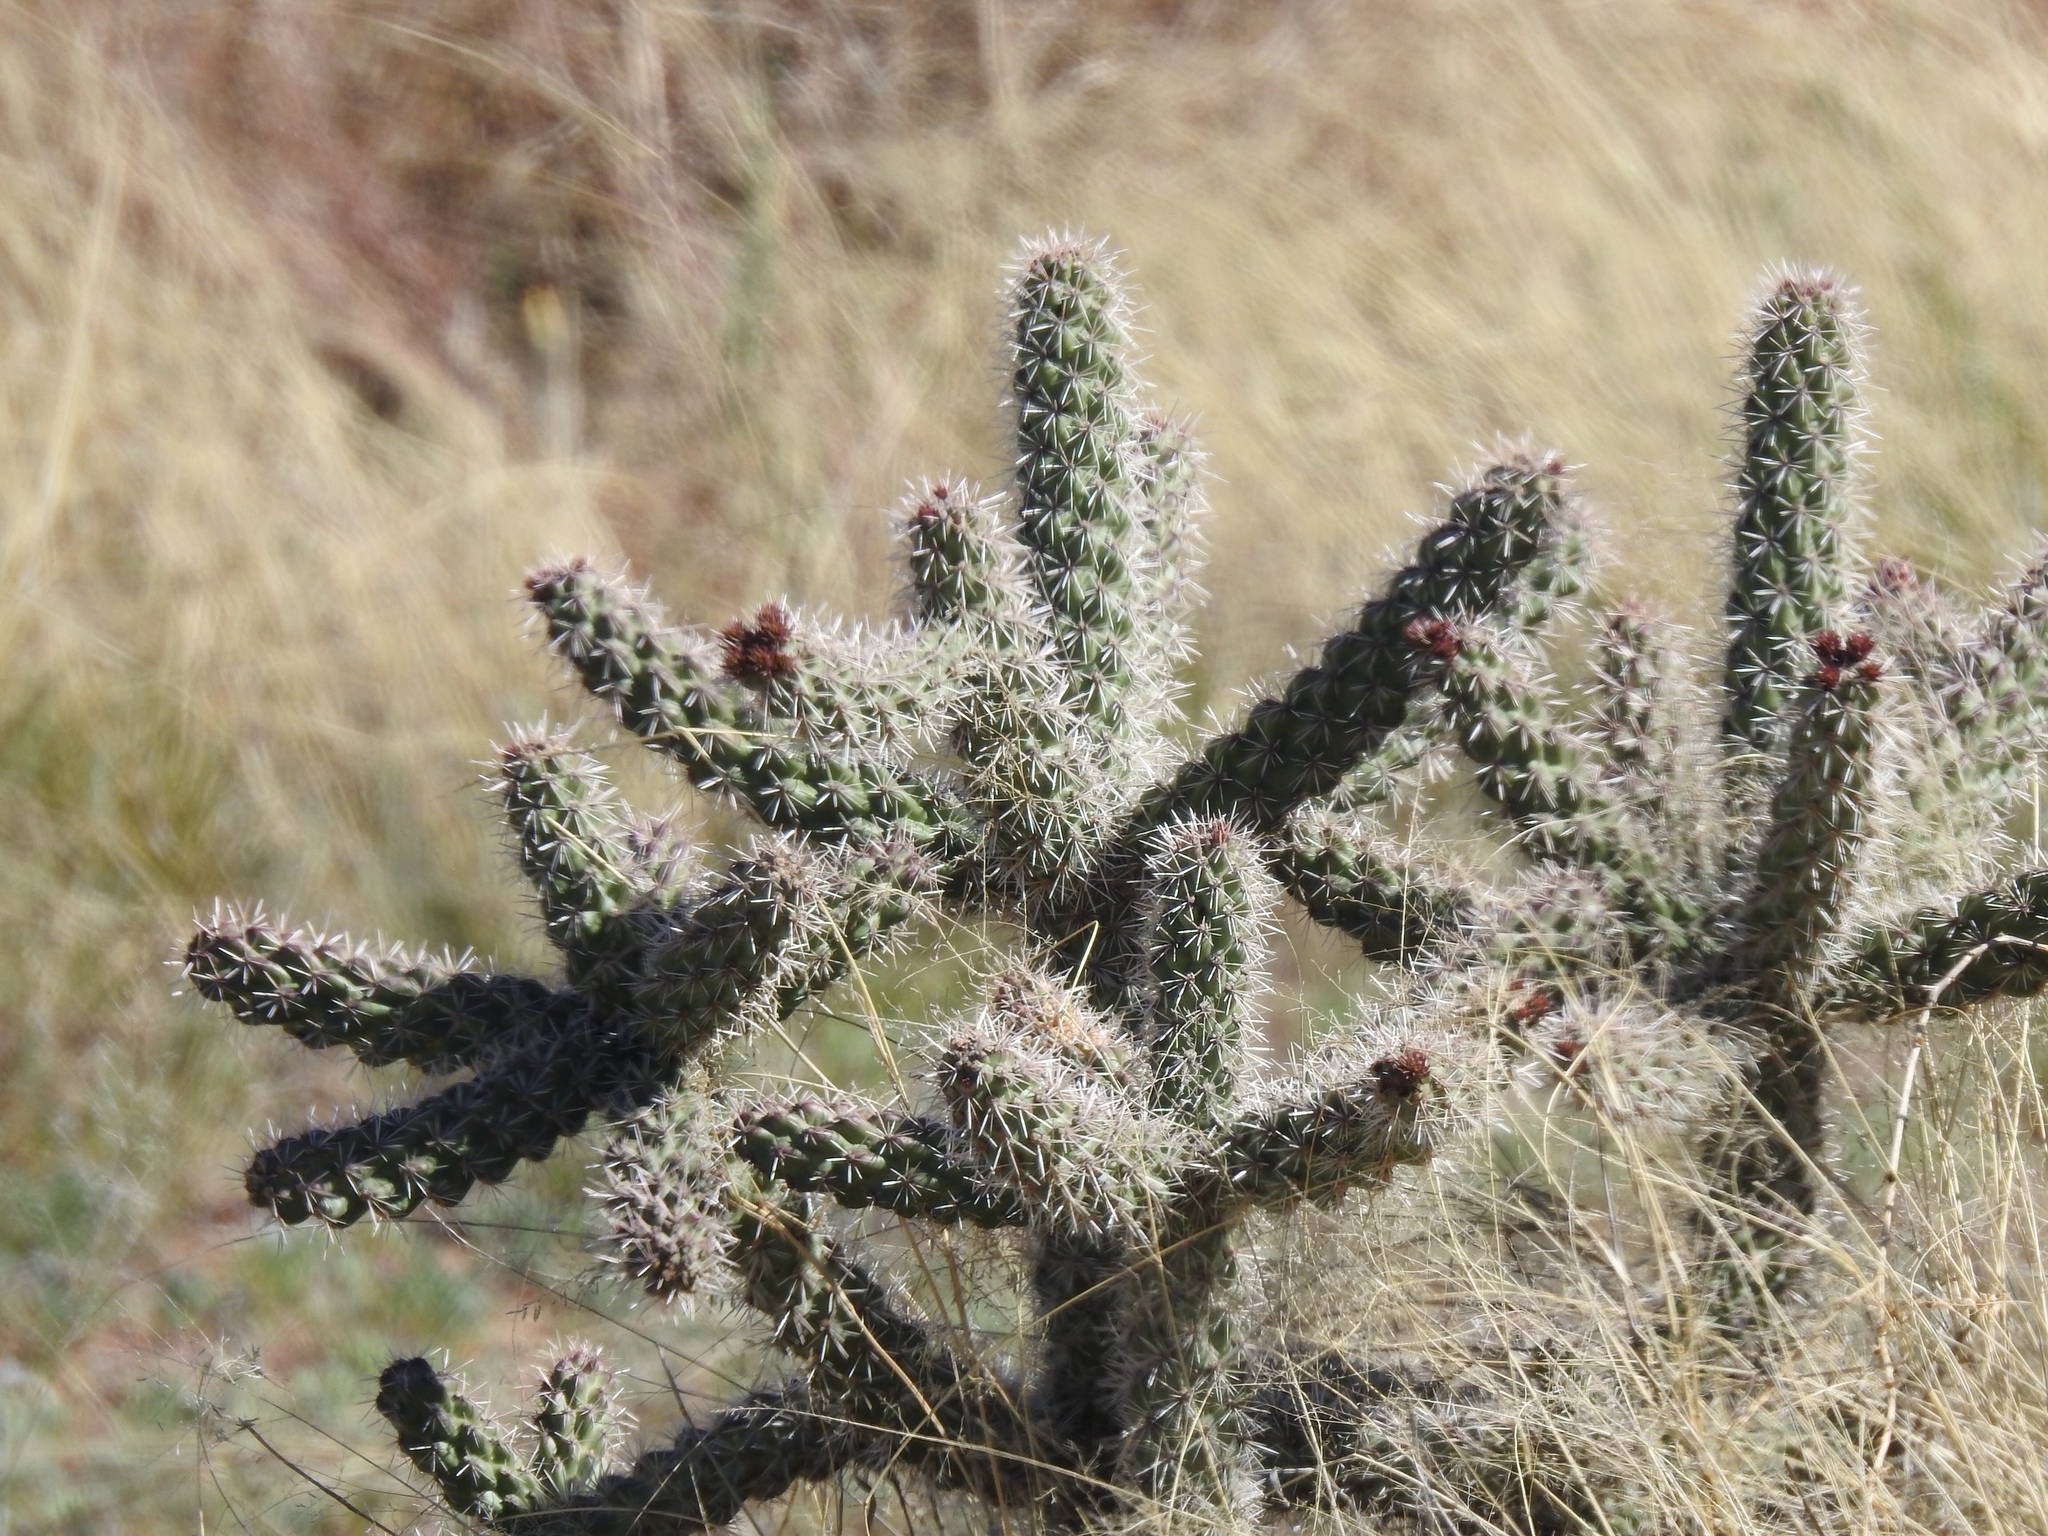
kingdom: Plantae
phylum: Tracheophyta
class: Magnoliopsida
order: Caryophyllales
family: Cactaceae
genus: Cylindropuntia
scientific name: Cylindropuntia imbricata
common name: Candelabrum cactus
